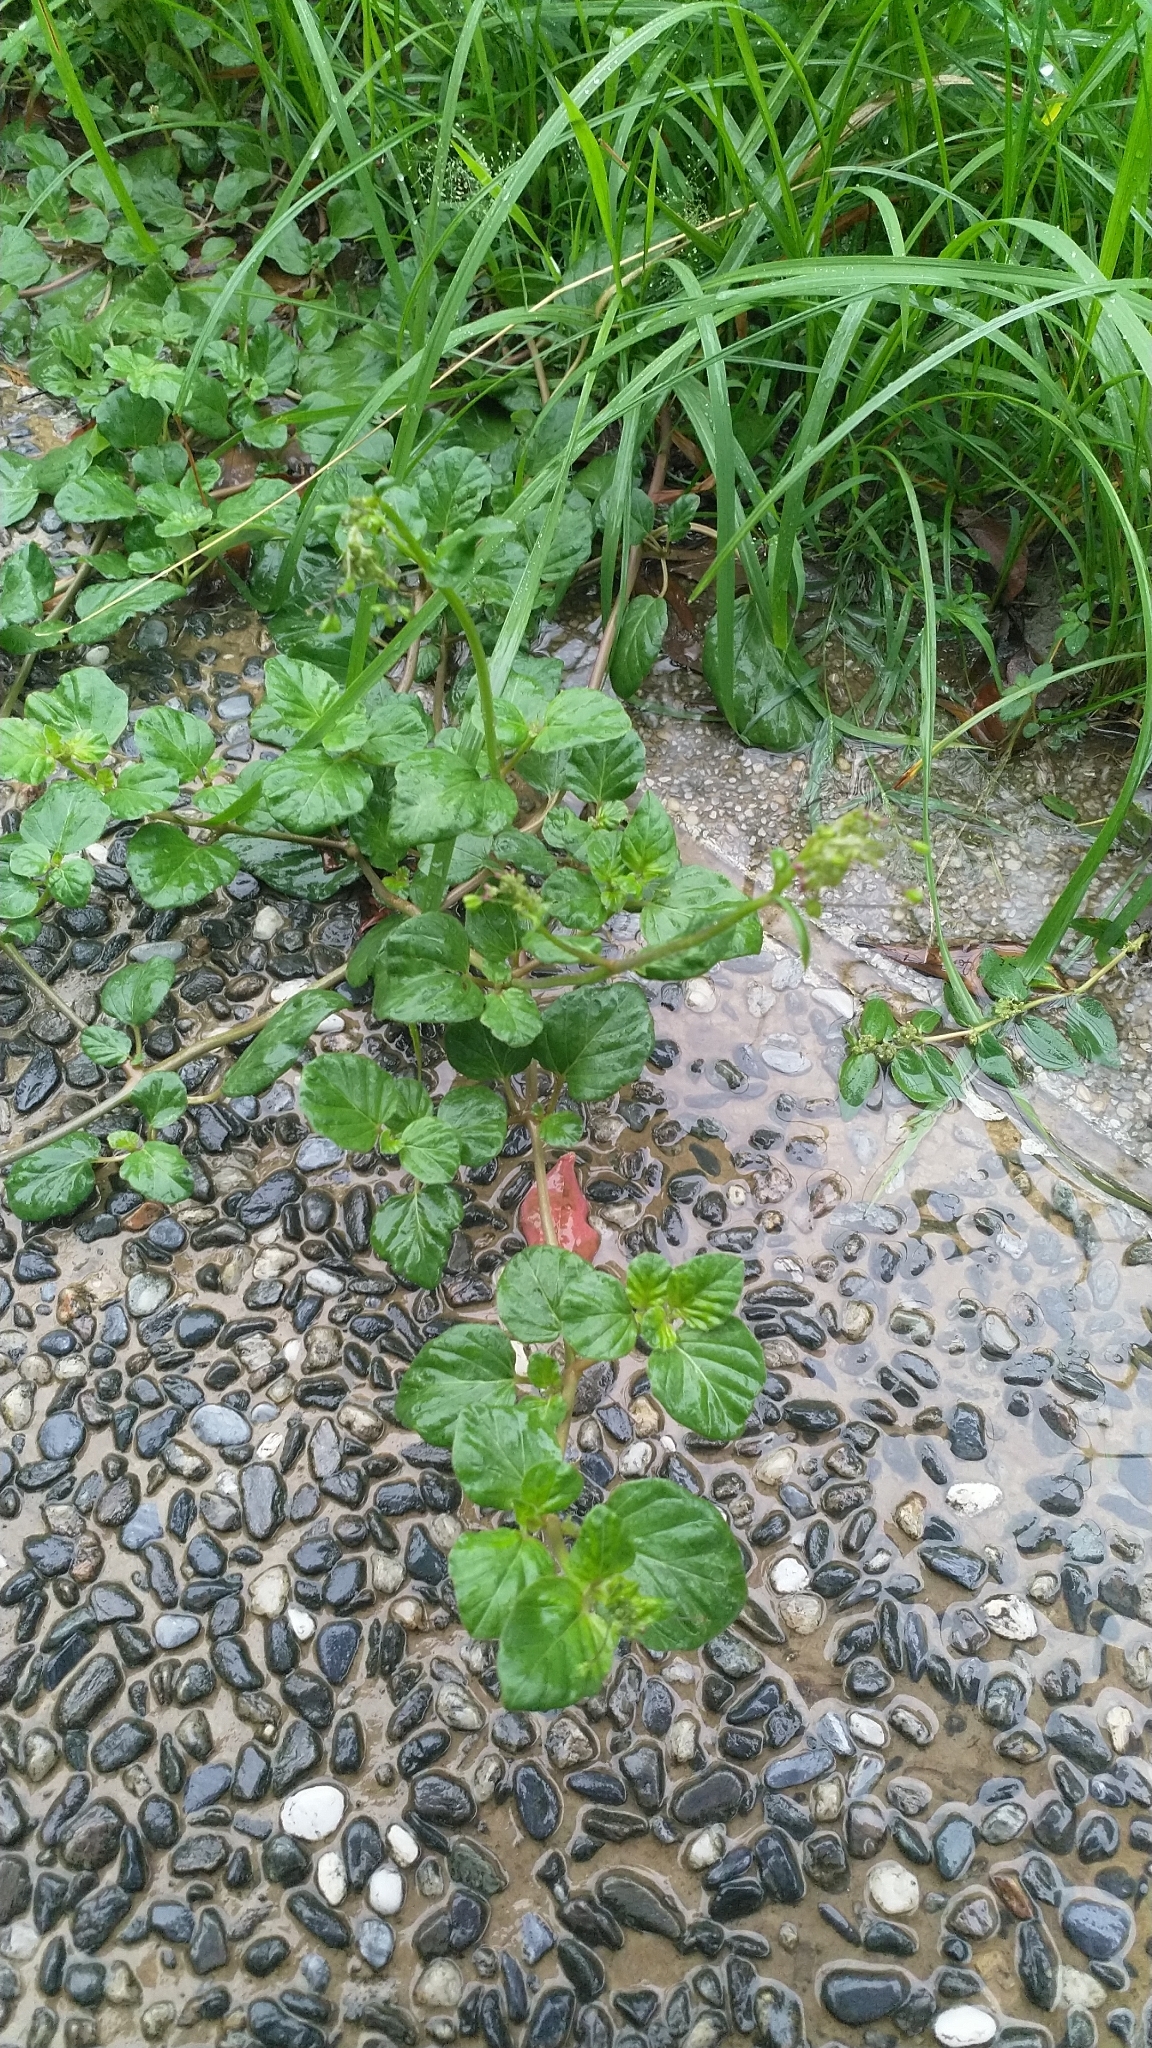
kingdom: Plantae
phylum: Tracheophyta
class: Magnoliopsida
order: Caryophyllales
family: Nyctaginaceae
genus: Boerhavia
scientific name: Boerhavia coccinea
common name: Scarlet spiderling
